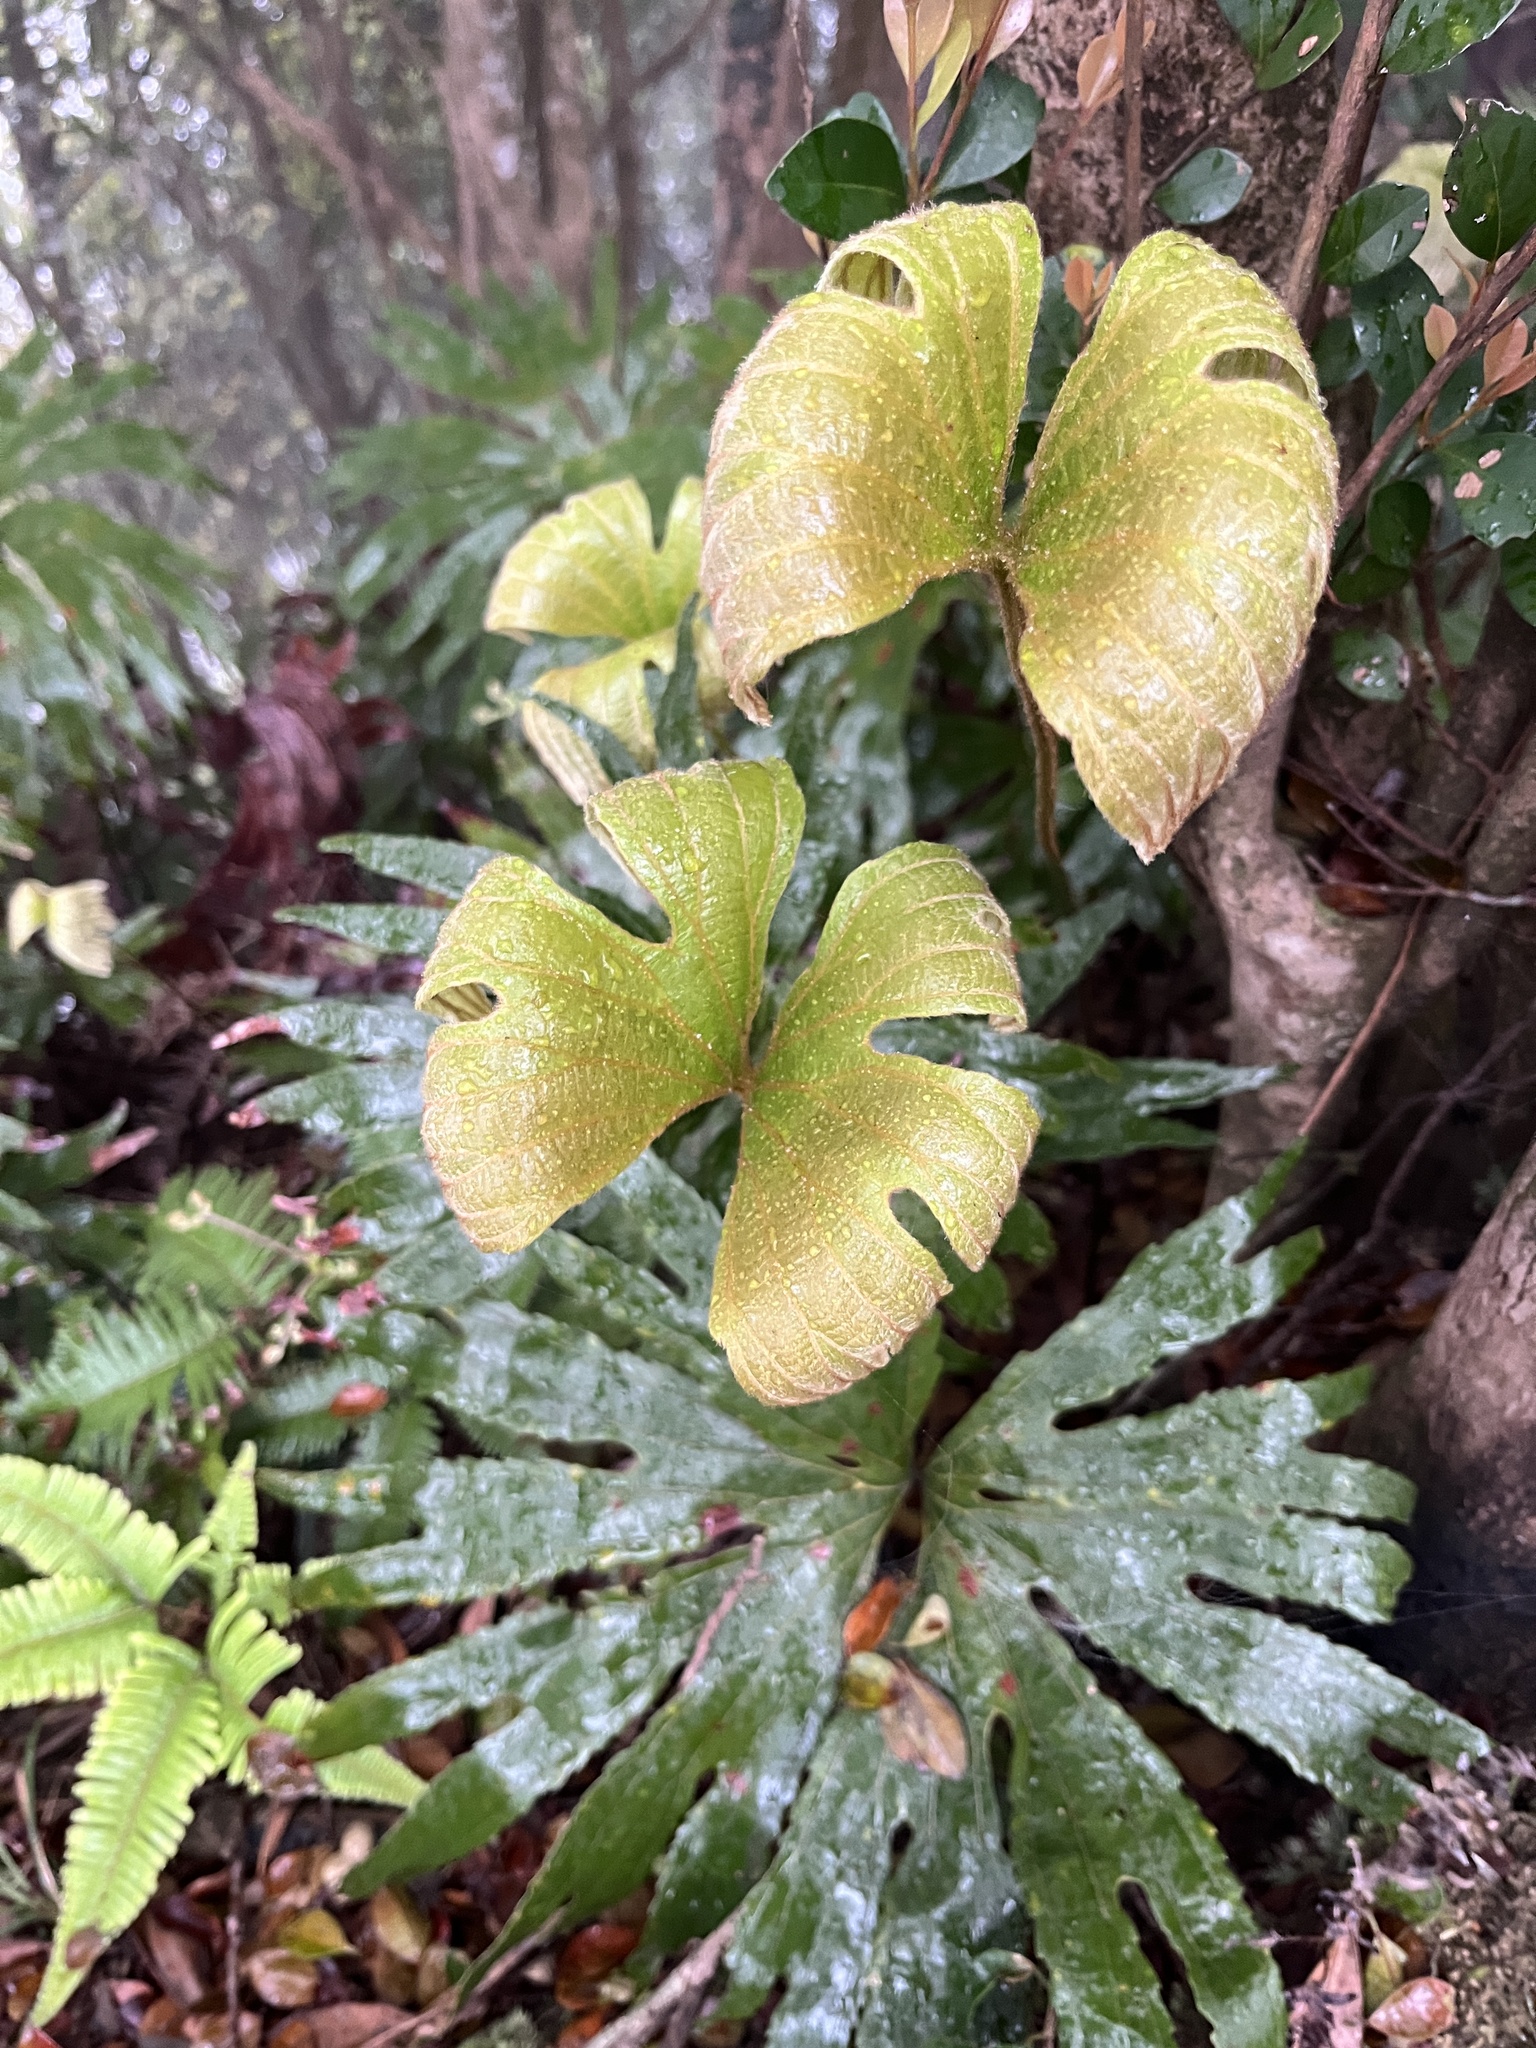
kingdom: Plantae
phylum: Tracheophyta
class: Polypodiopsida
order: Gleicheniales
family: Dipteridaceae
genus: Dipteris
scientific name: Dipteris conjugata
